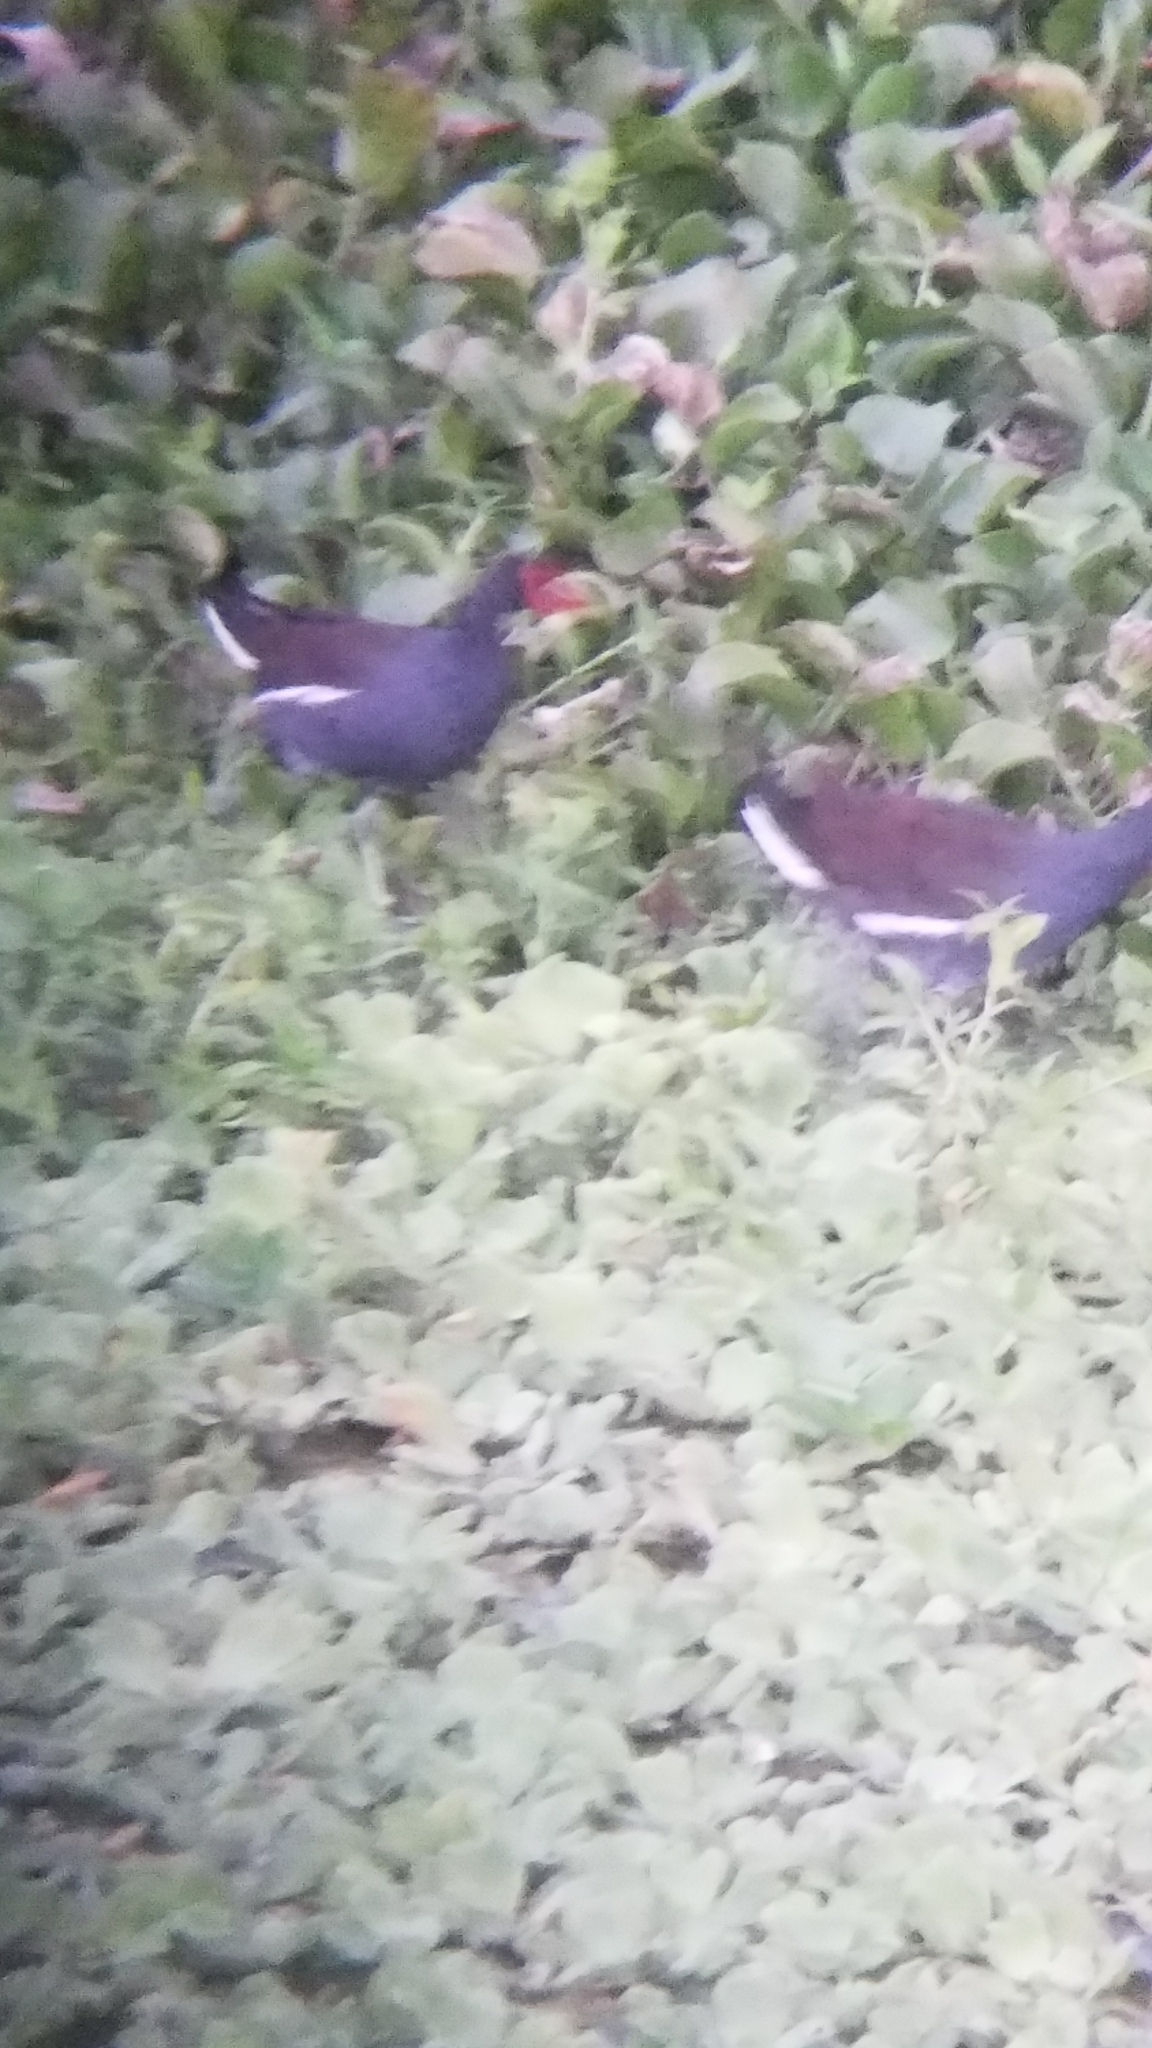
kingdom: Animalia
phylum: Chordata
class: Aves
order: Gruiformes
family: Rallidae
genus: Gallinula
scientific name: Gallinula chloropus
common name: Common moorhen
